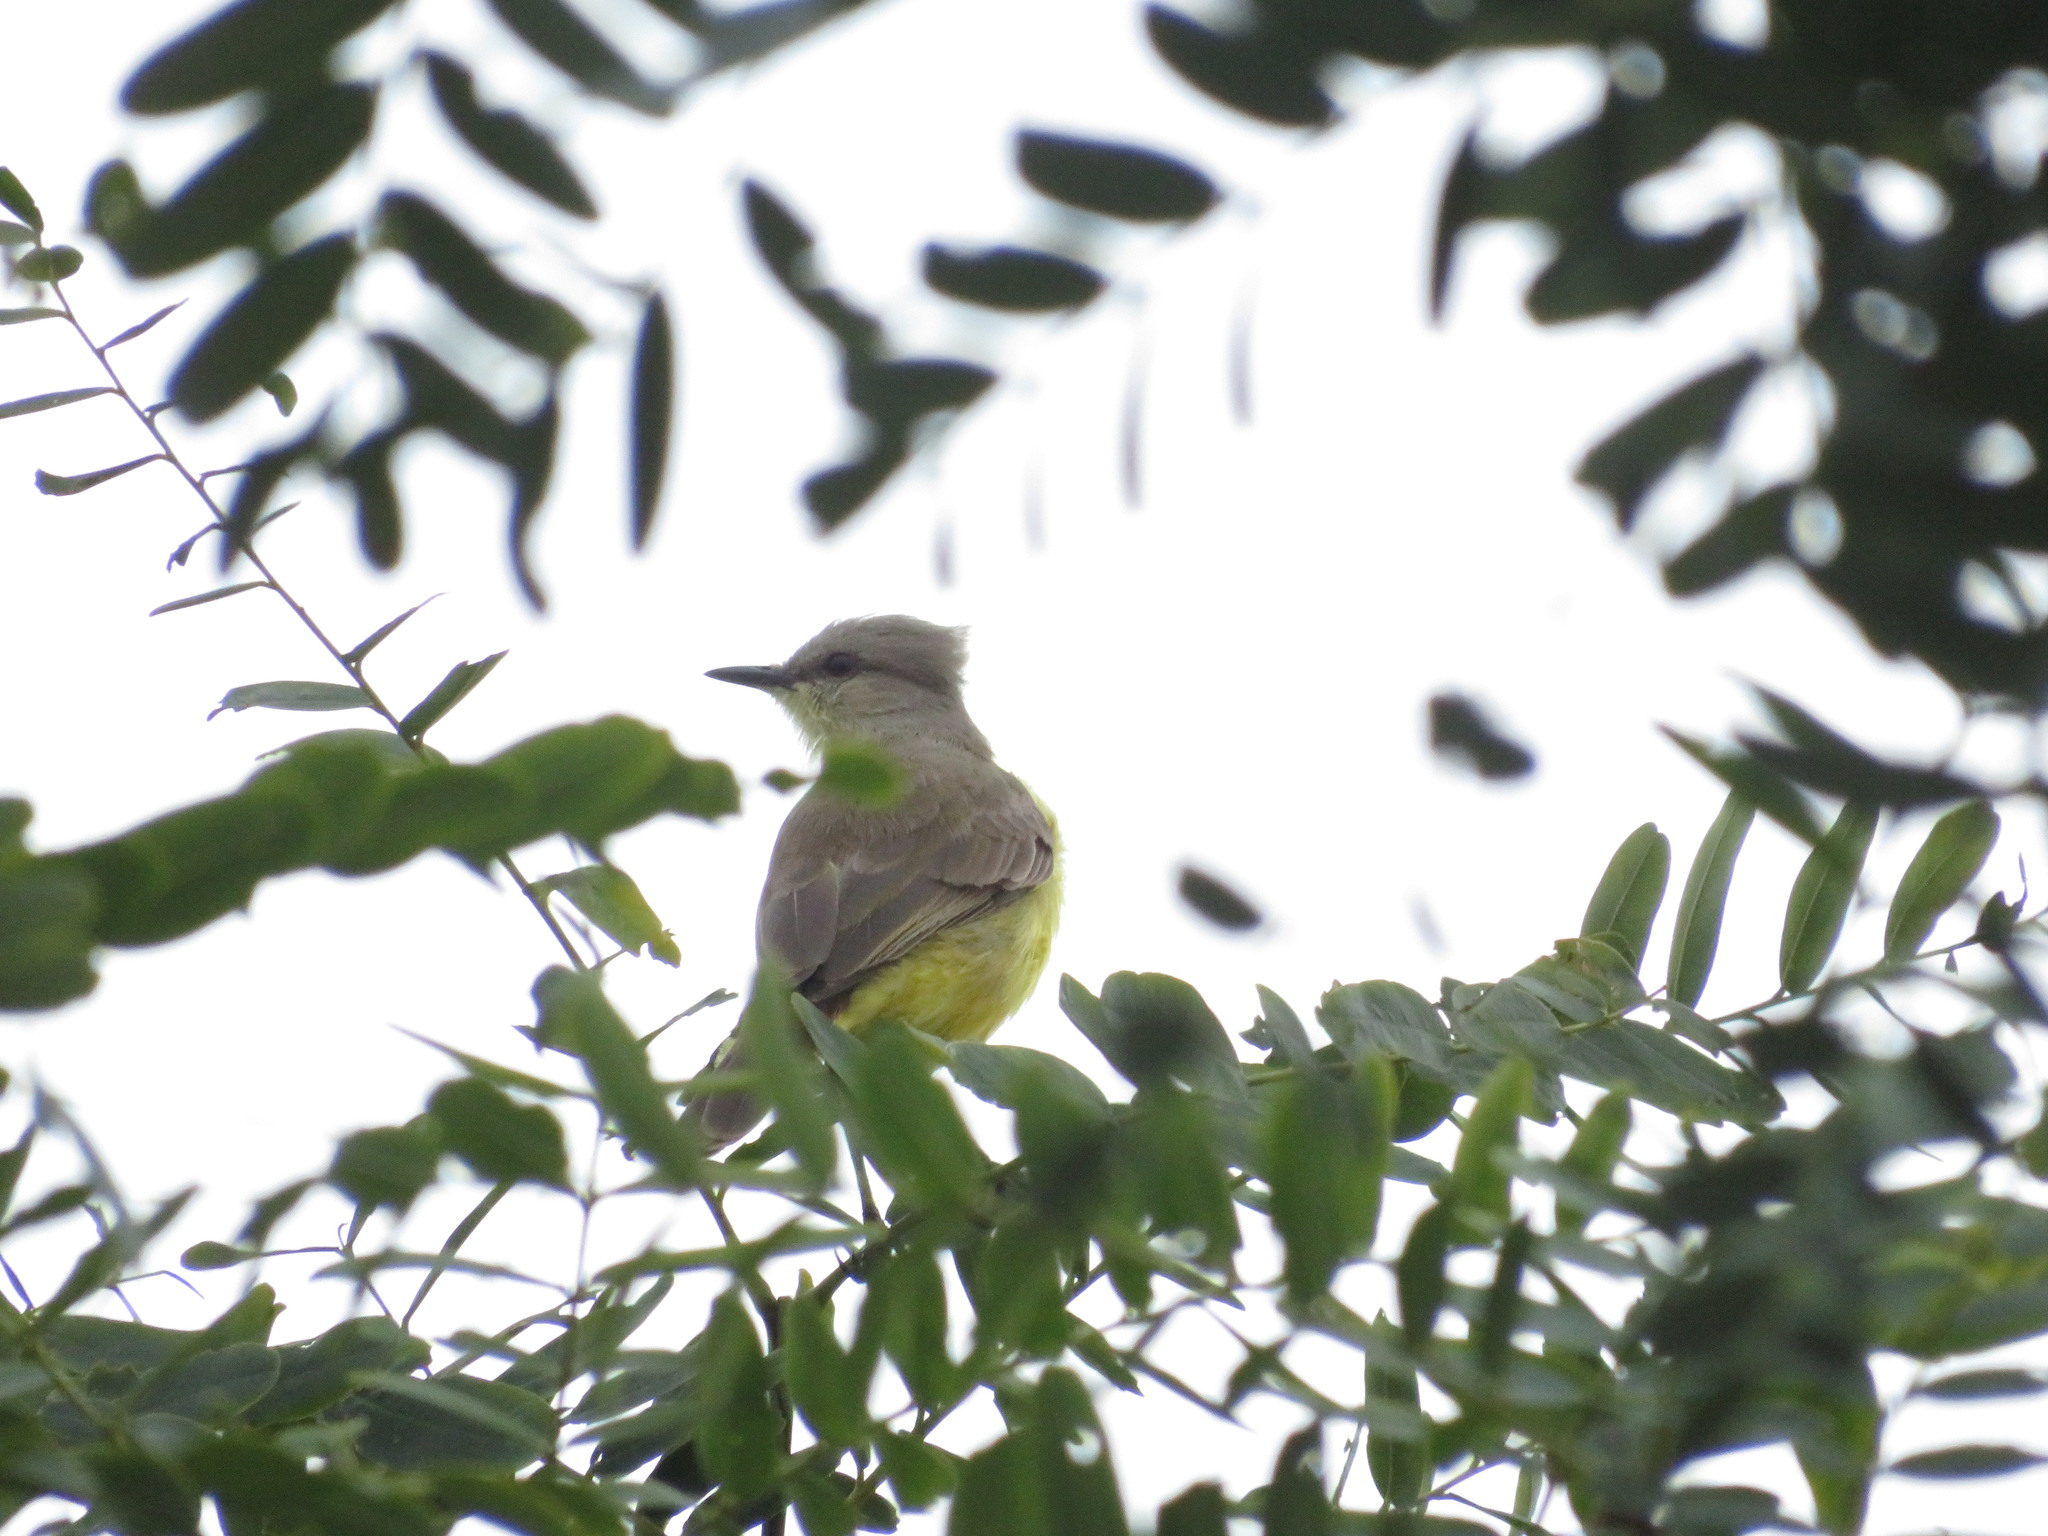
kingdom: Animalia
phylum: Chordata
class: Aves
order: Passeriformes
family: Tyrannidae
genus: Machetornis
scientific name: Machetornis rixosa
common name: Cattle tyrant
